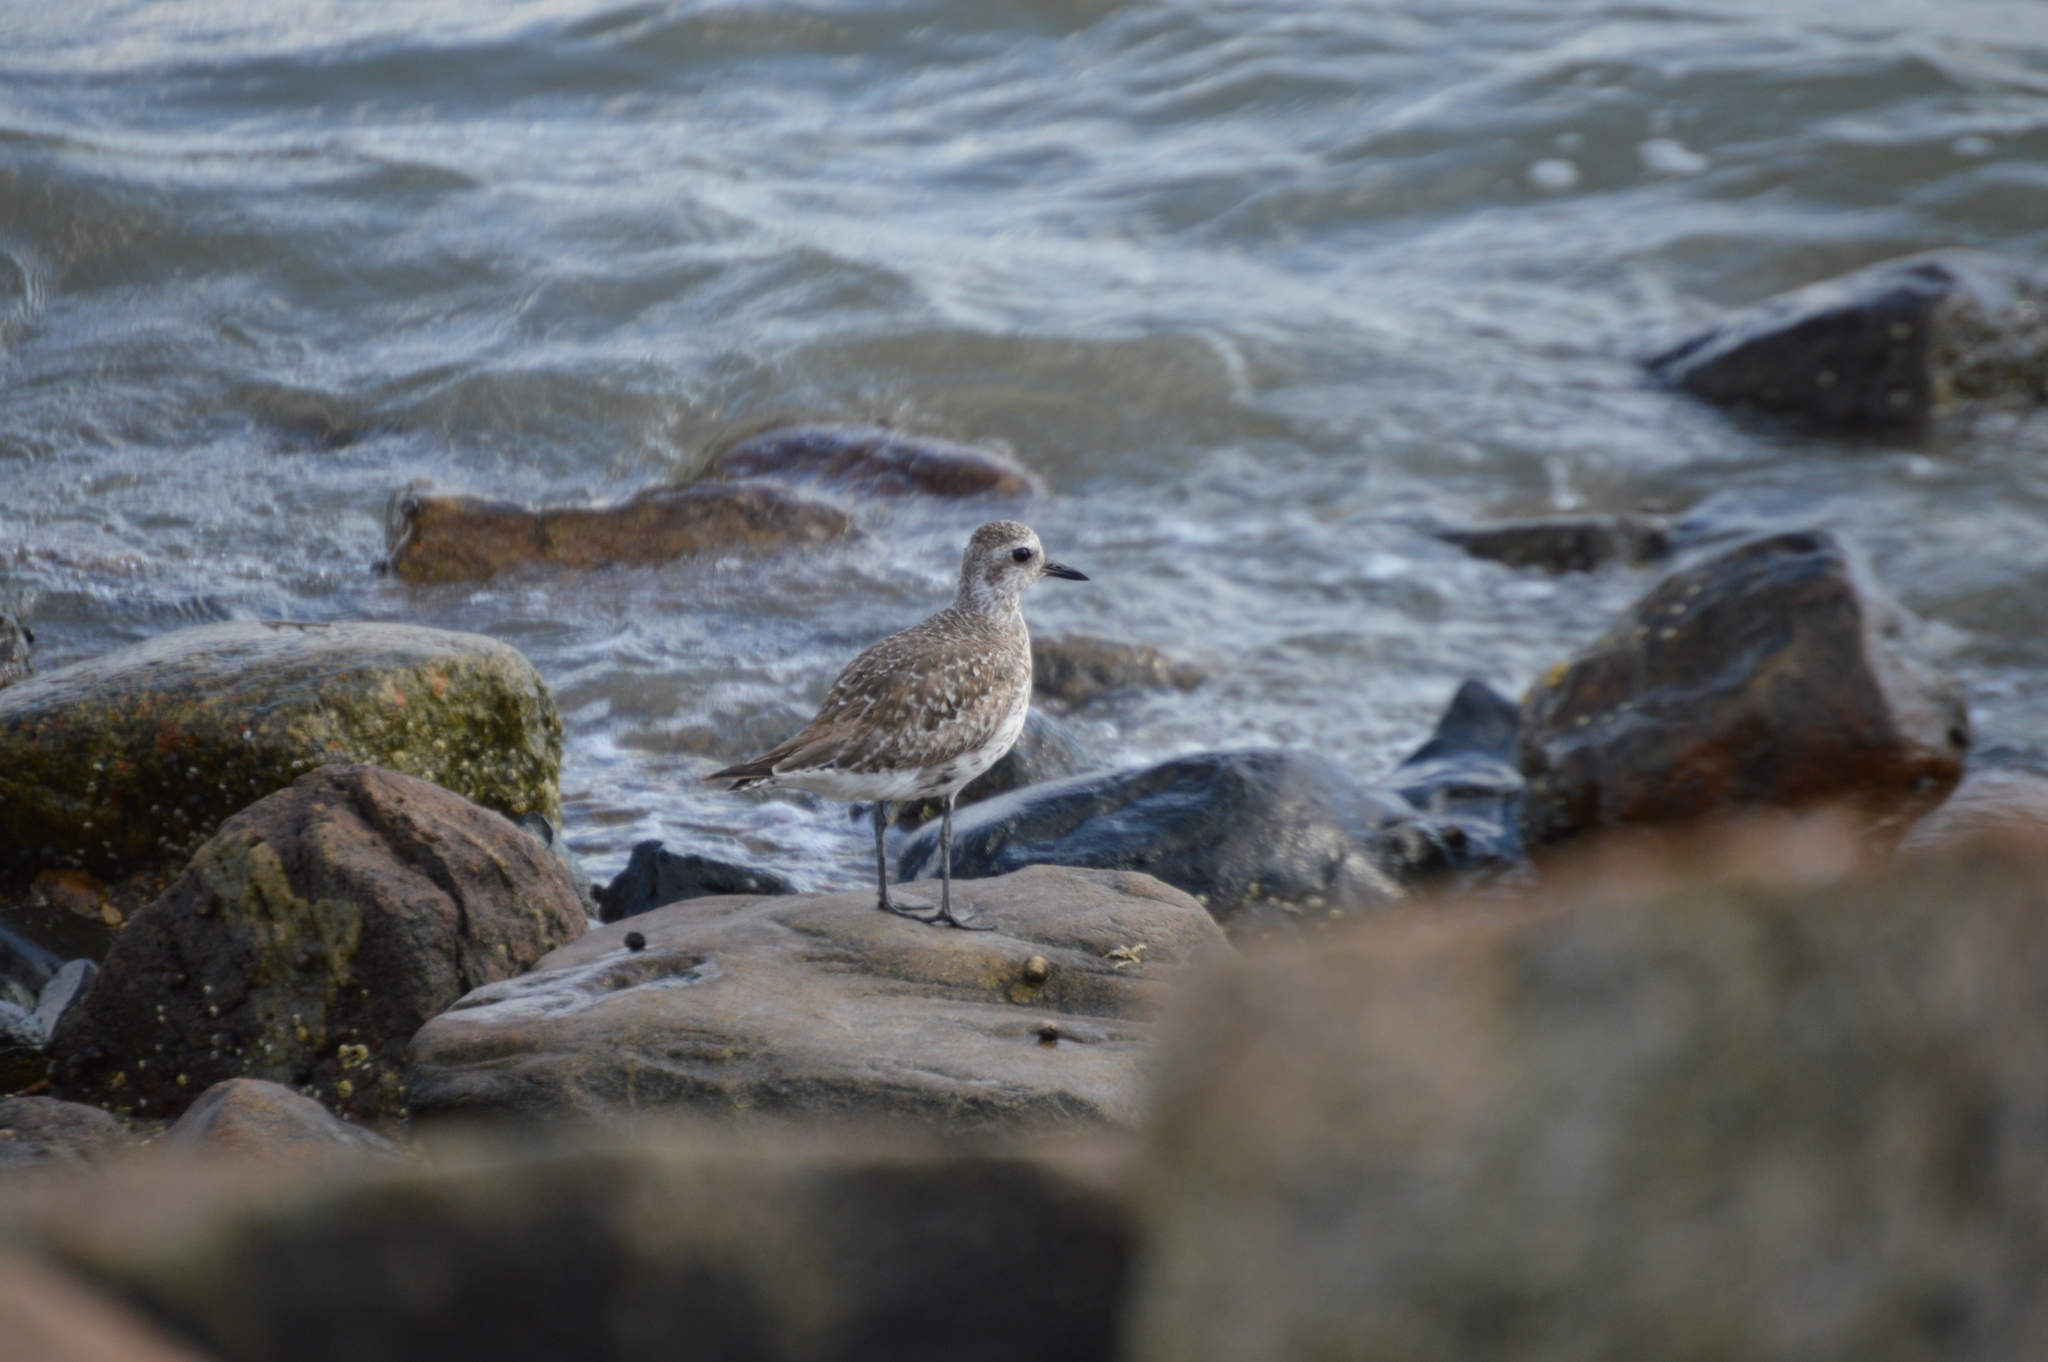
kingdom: Animalia
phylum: Chordata
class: Aves
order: Charadriiformes
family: Charadriidae
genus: Pluvialis
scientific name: Pluvialis dominica
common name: American golden plover
